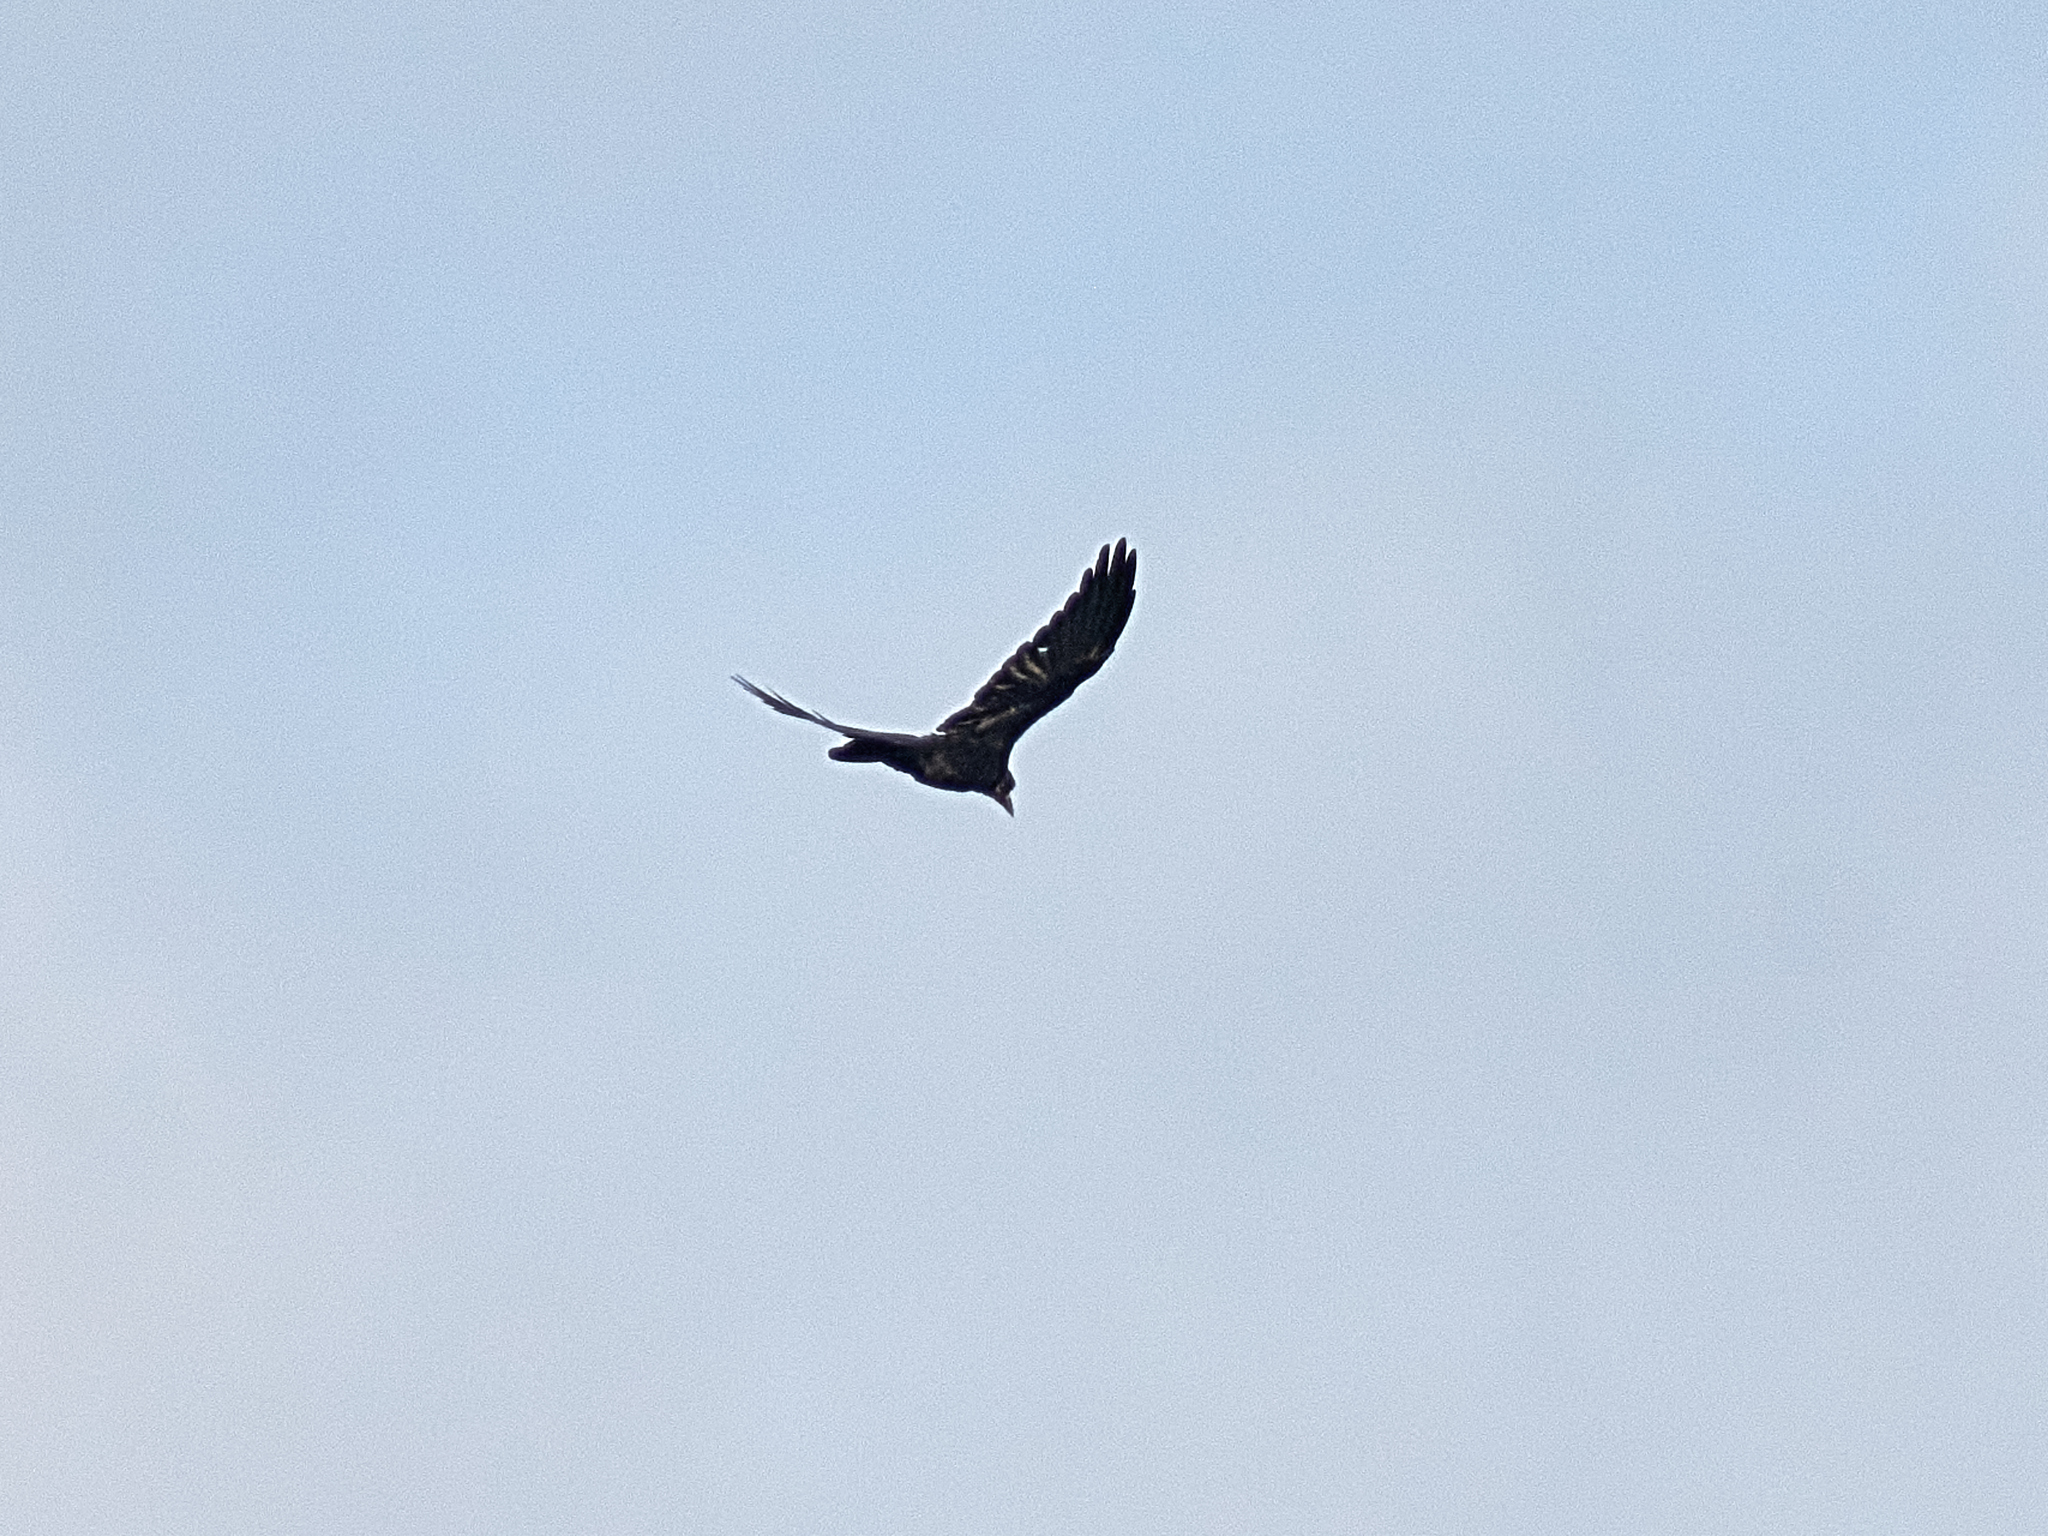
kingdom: Animalia
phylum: Chordata
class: Aves
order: Passeriformes
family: Corvidae
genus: Corvus
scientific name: Corvus frugilegus
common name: Rook
